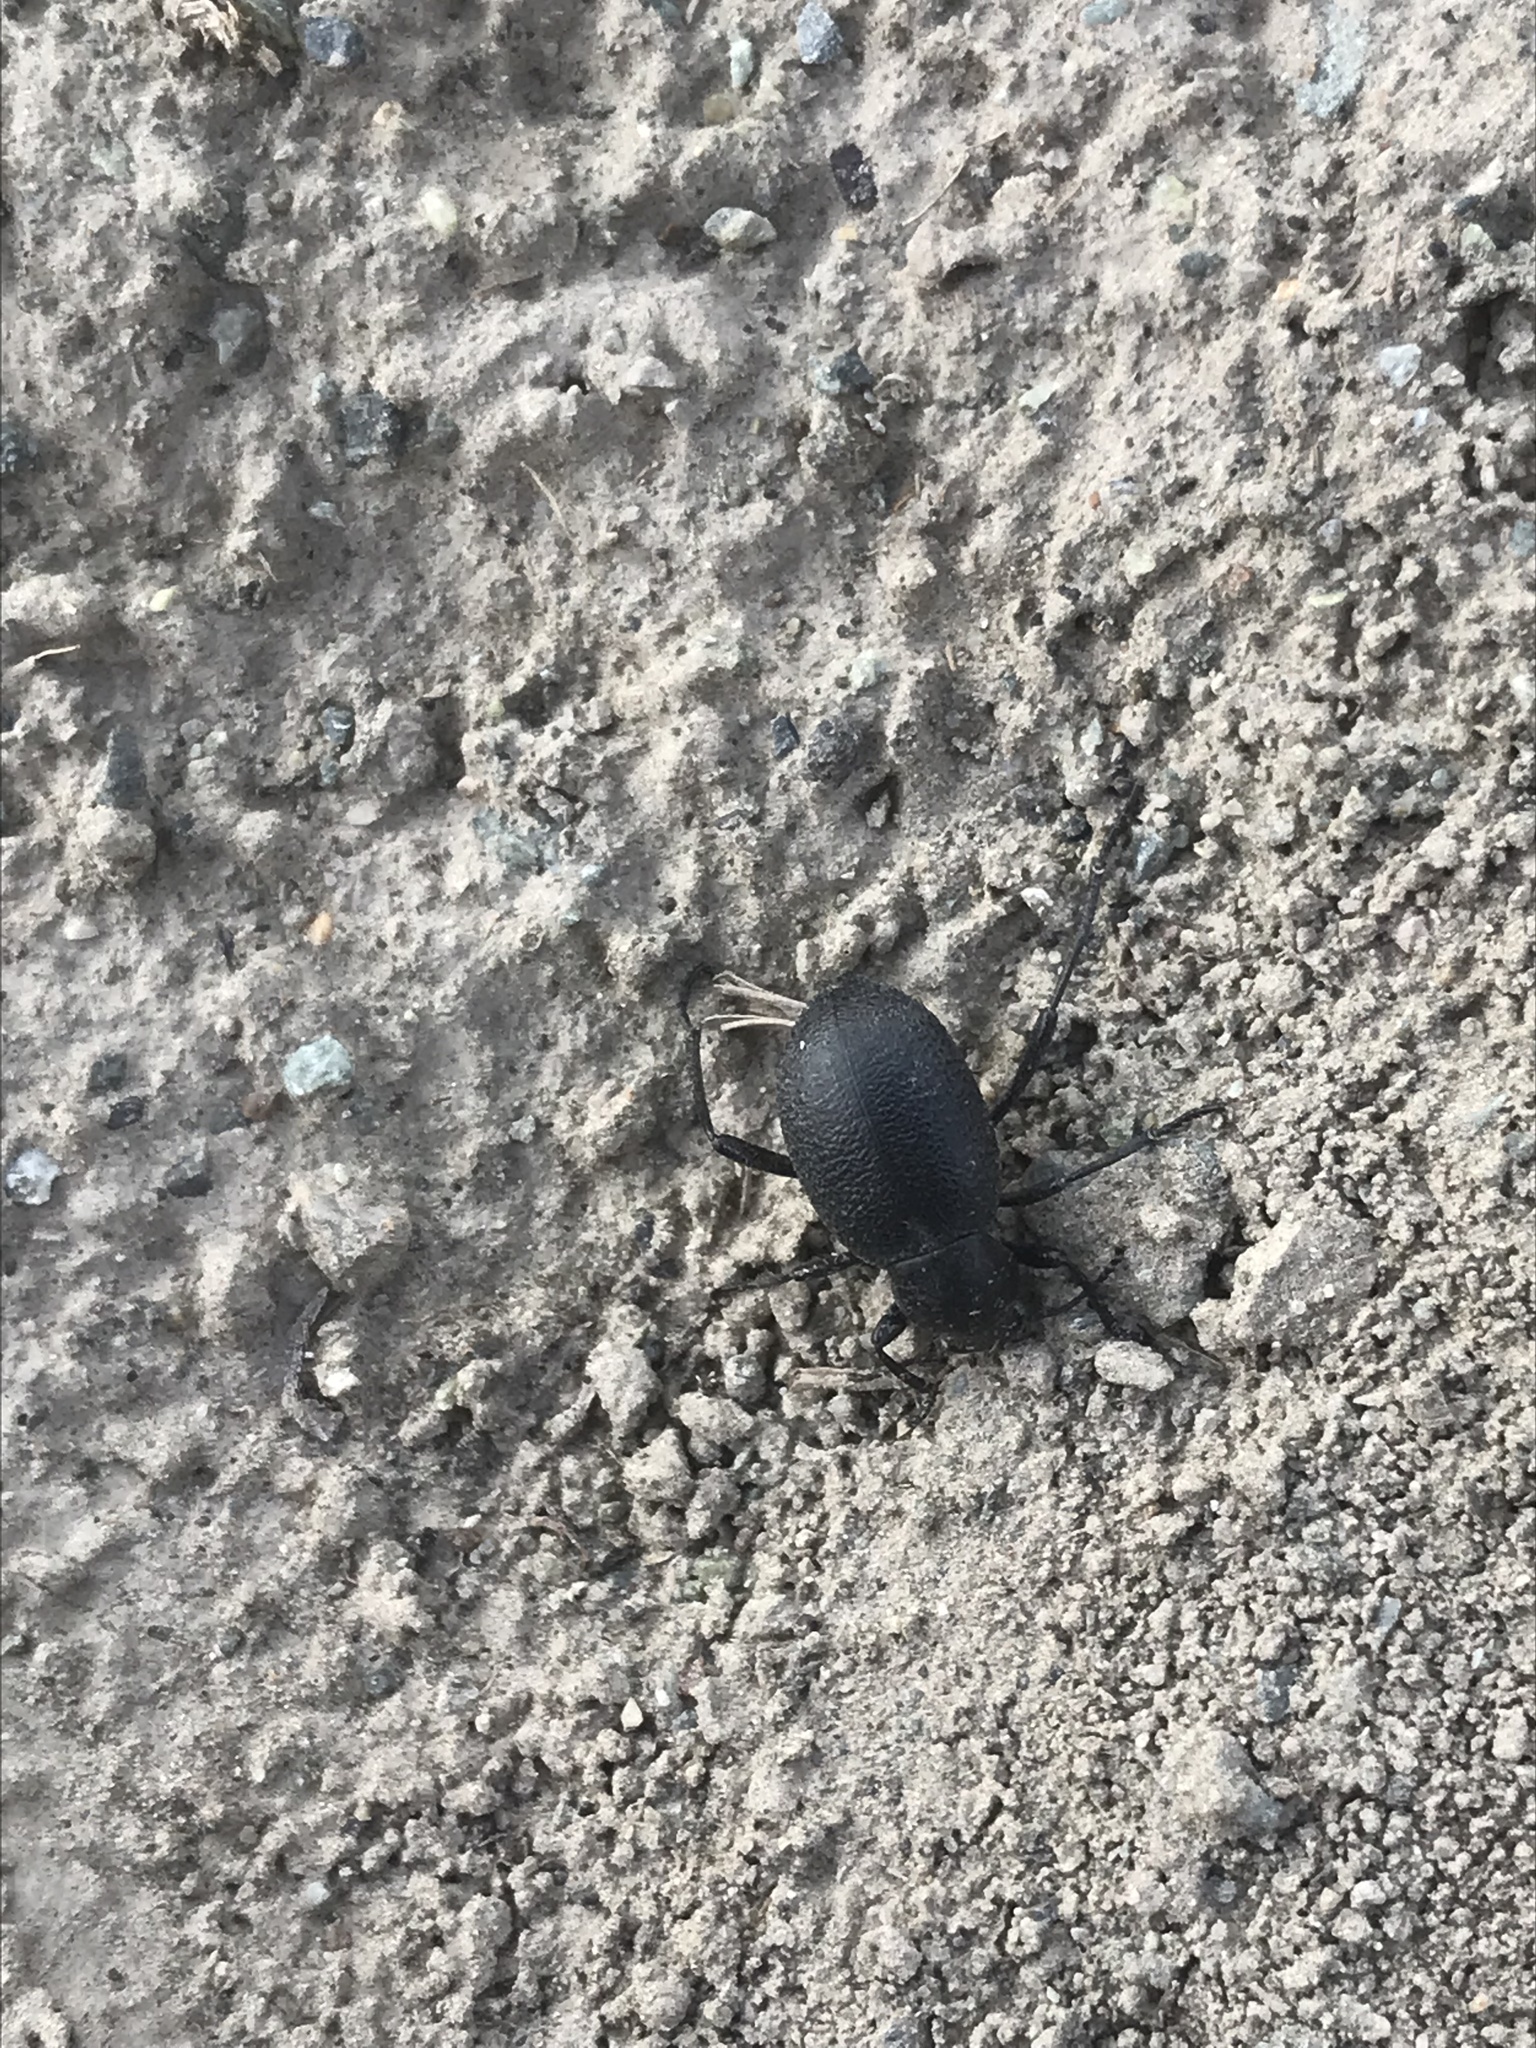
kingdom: Animalia
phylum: Arthropoda
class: Insecta
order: Coleoptera
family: Tenebrionidae
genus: Eleodes
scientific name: Eleodes granulata
